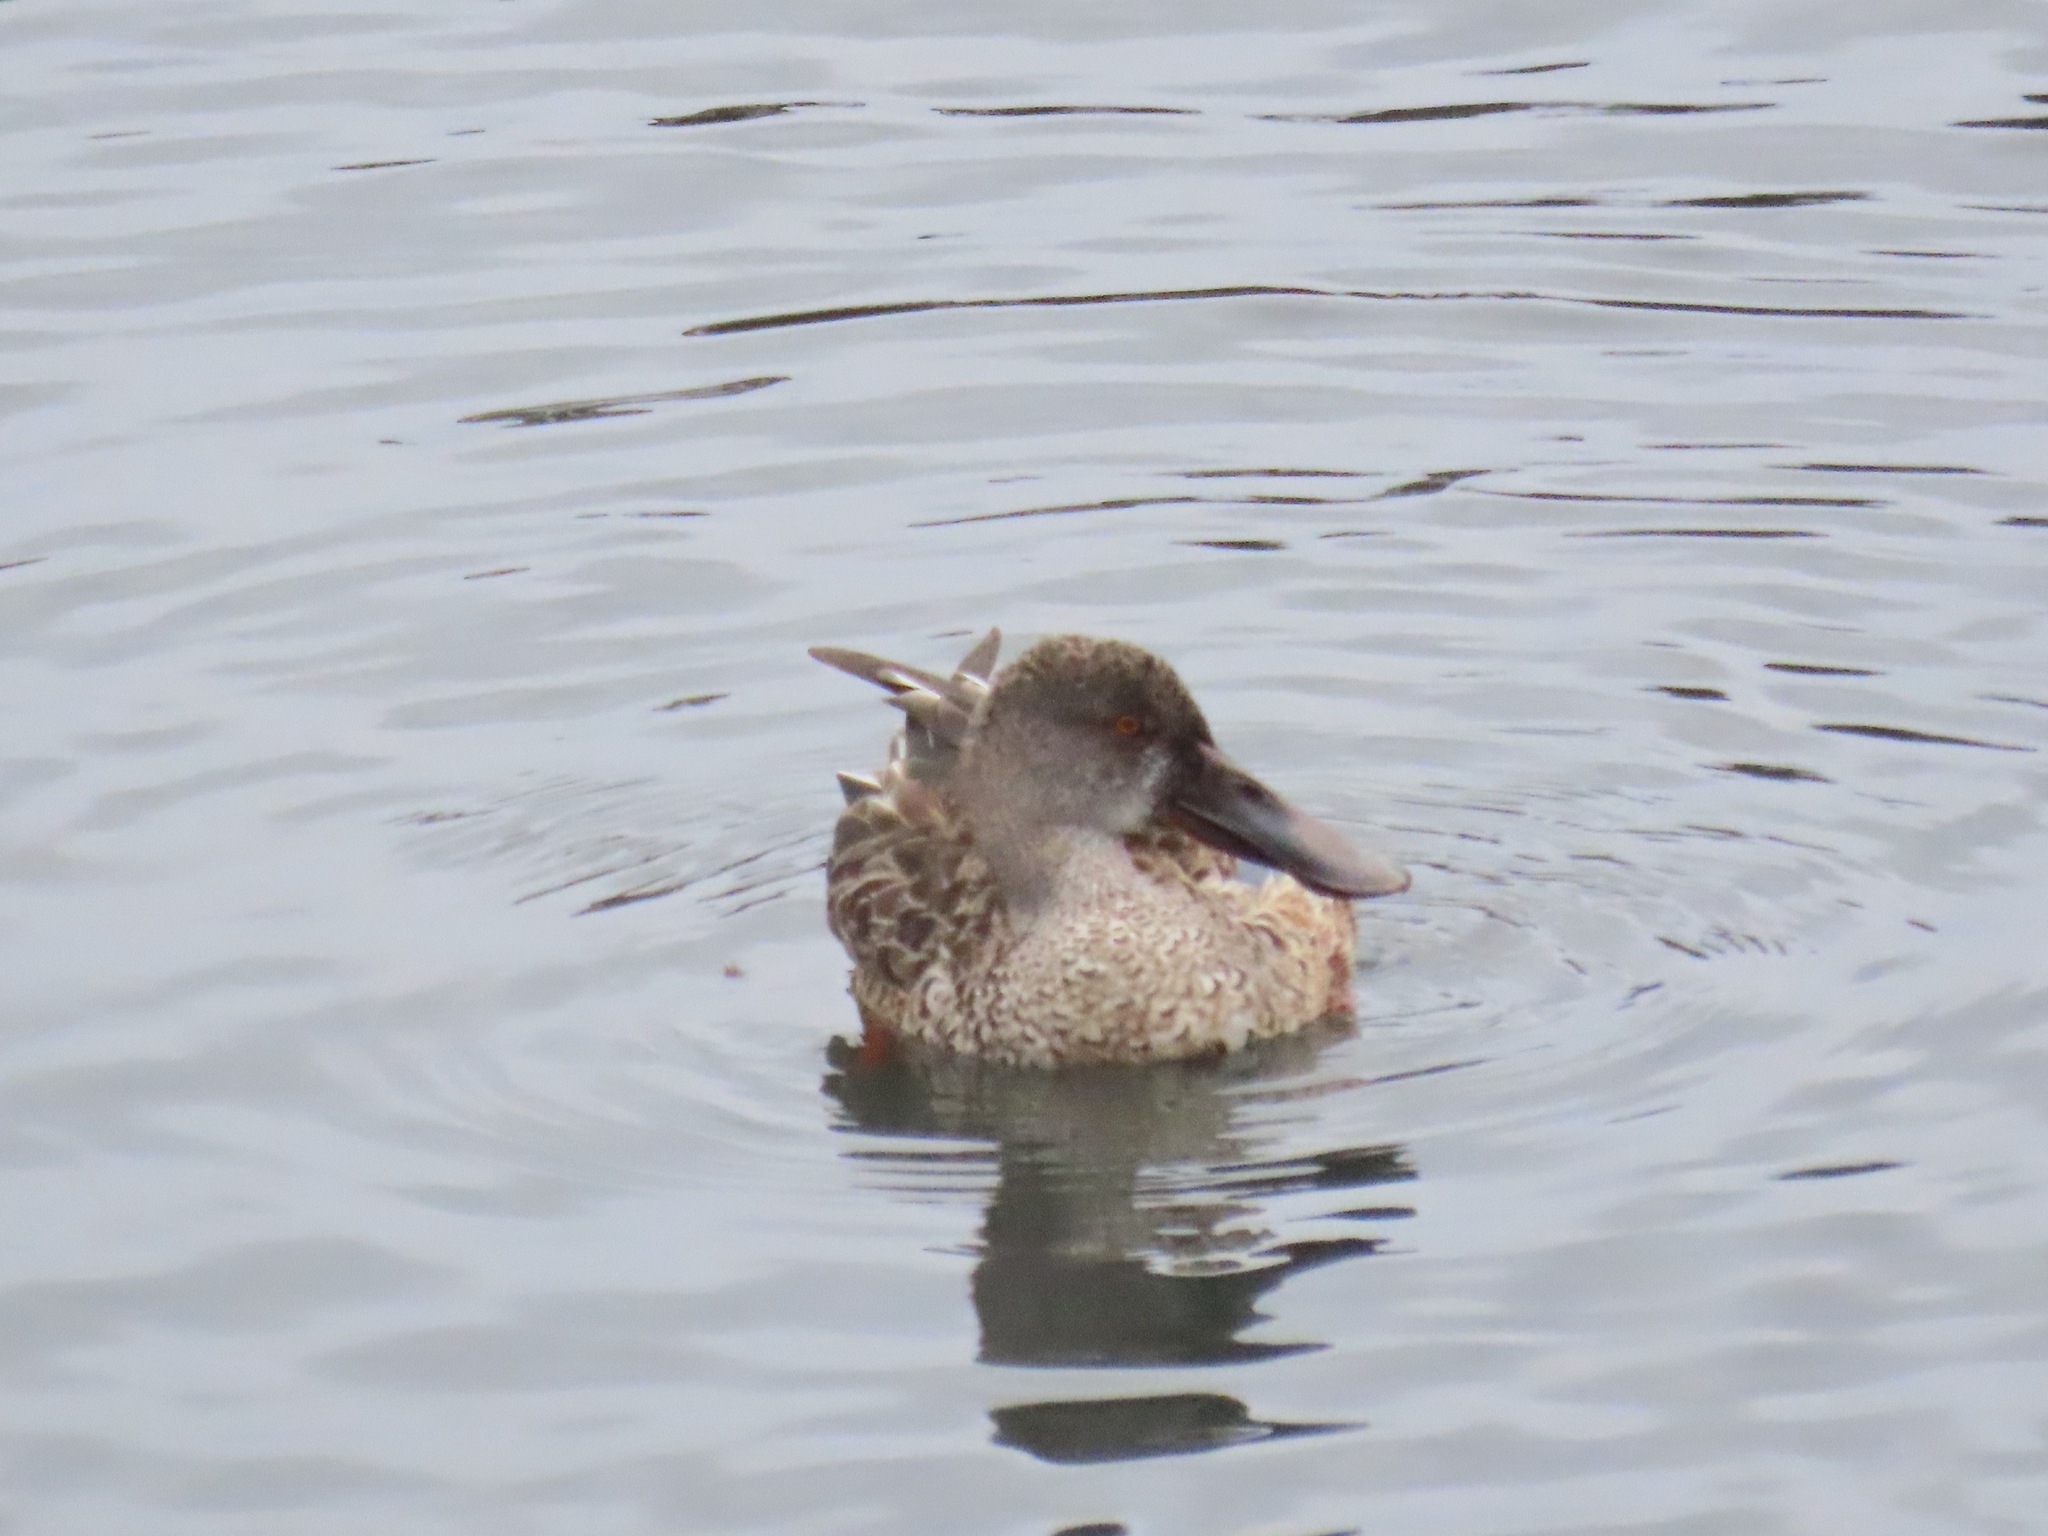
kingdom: Animalia
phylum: Chordata
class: Aves
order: Anseriformes
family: Anatidae
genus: Spatula
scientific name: Spatula clypeata
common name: Northern shoveler
